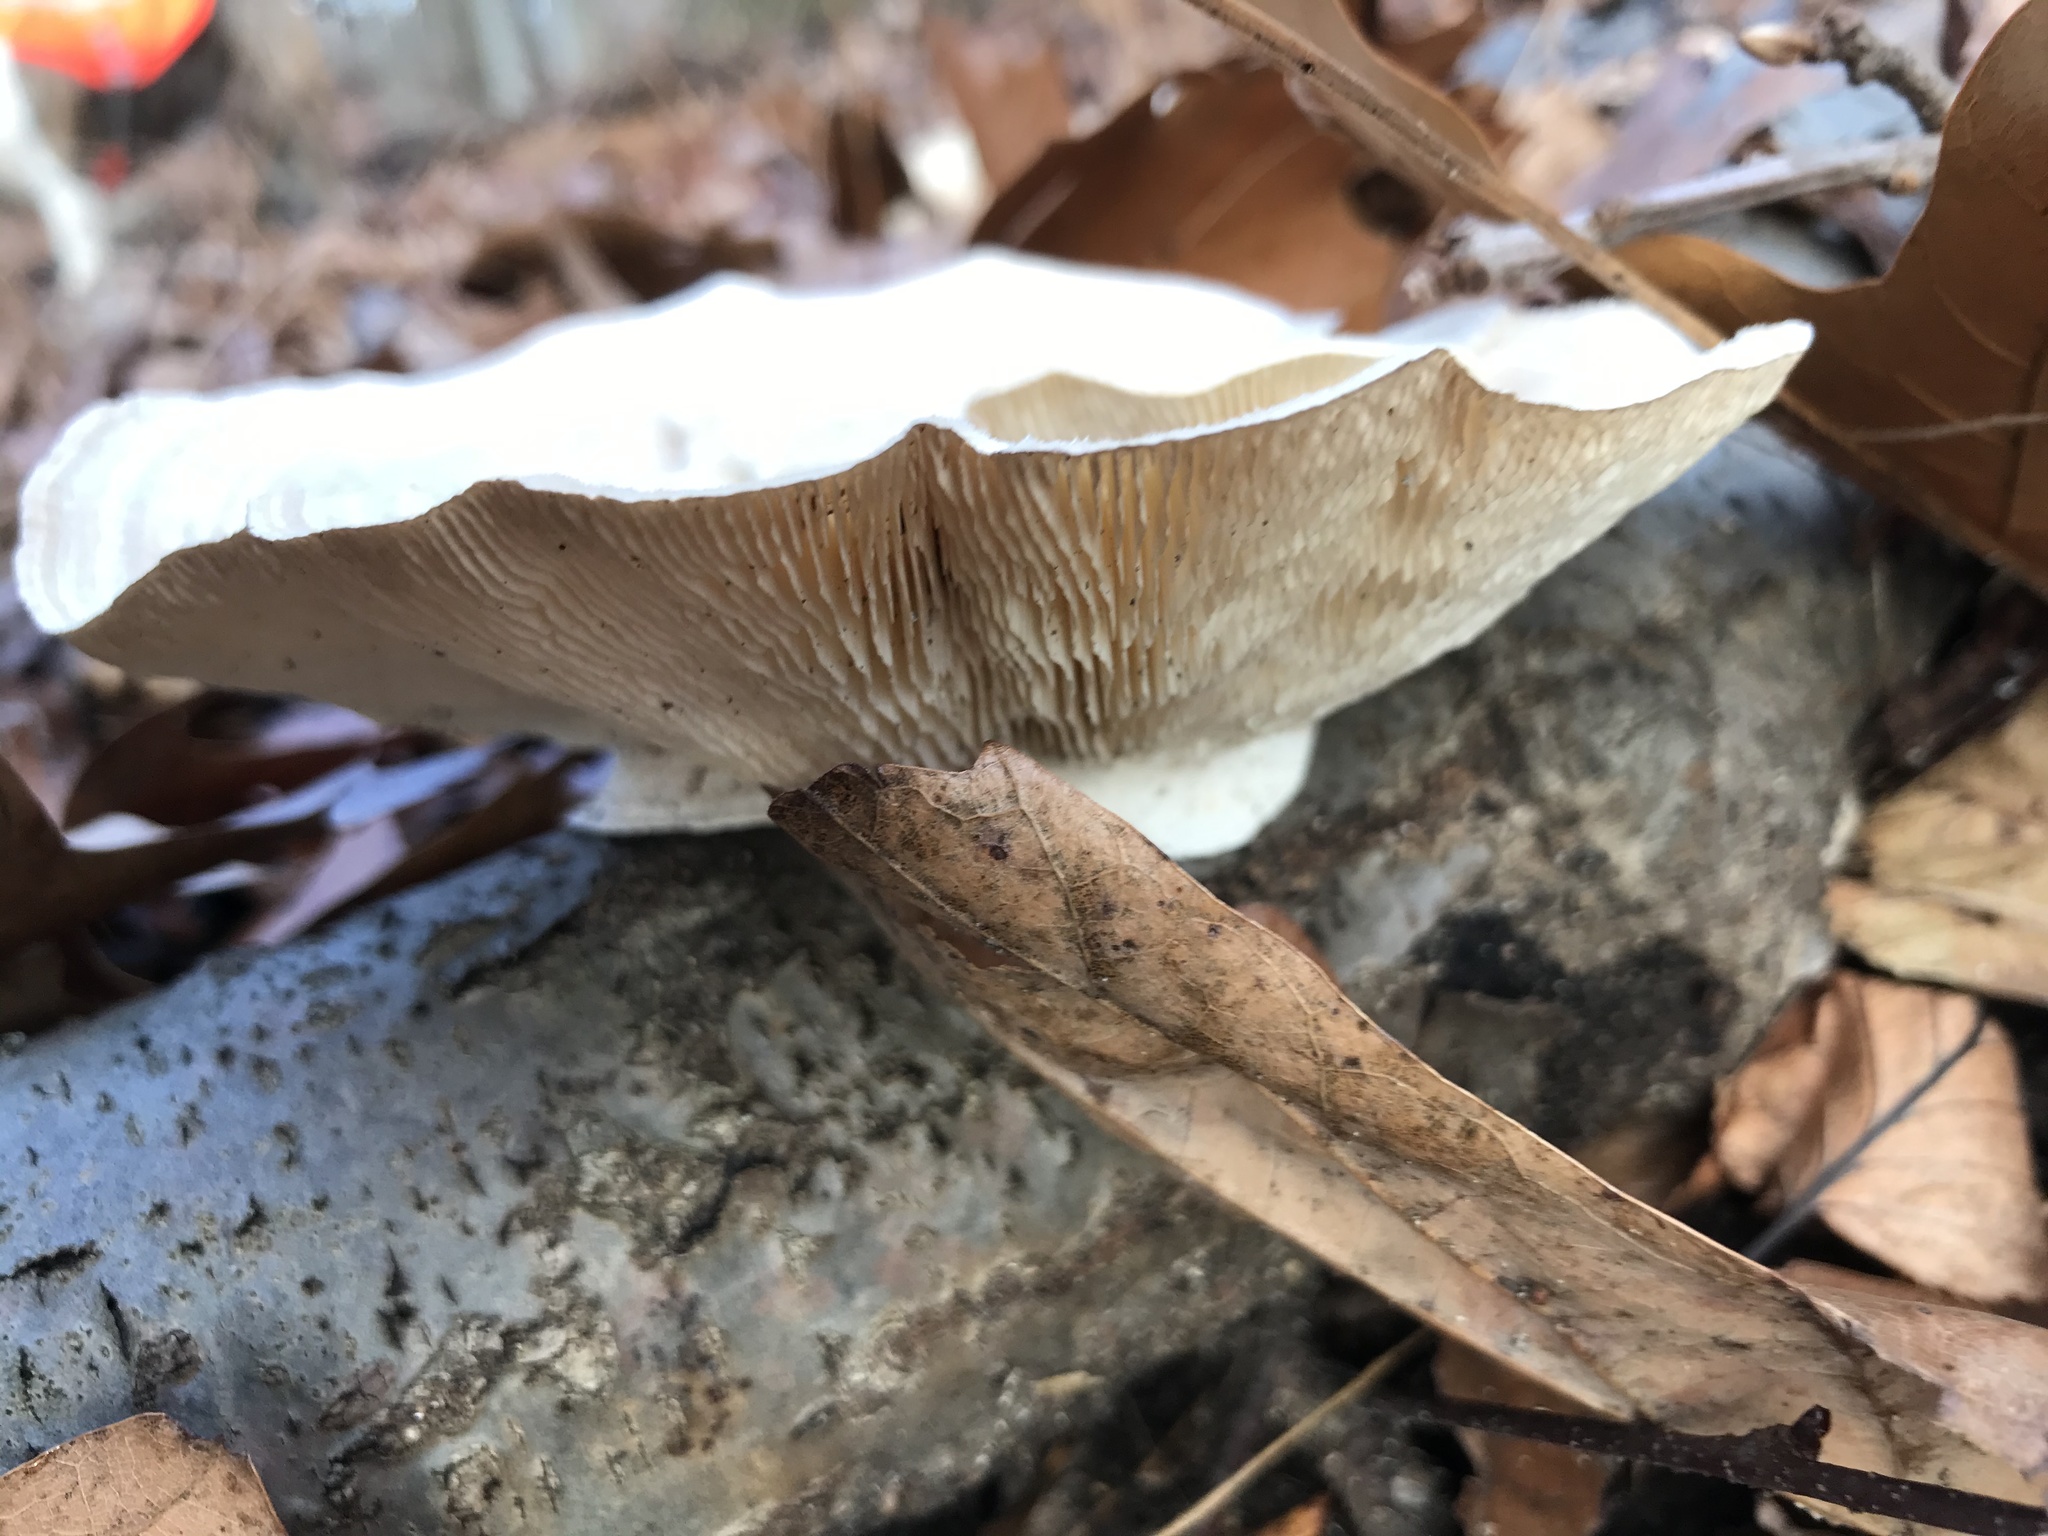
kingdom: Fungi
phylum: Basidiomycota
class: Agaricomycetes
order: Polyporales
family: Polyporaceae
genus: Lenzites
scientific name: Lenzites betulinus
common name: Birch mazegill
